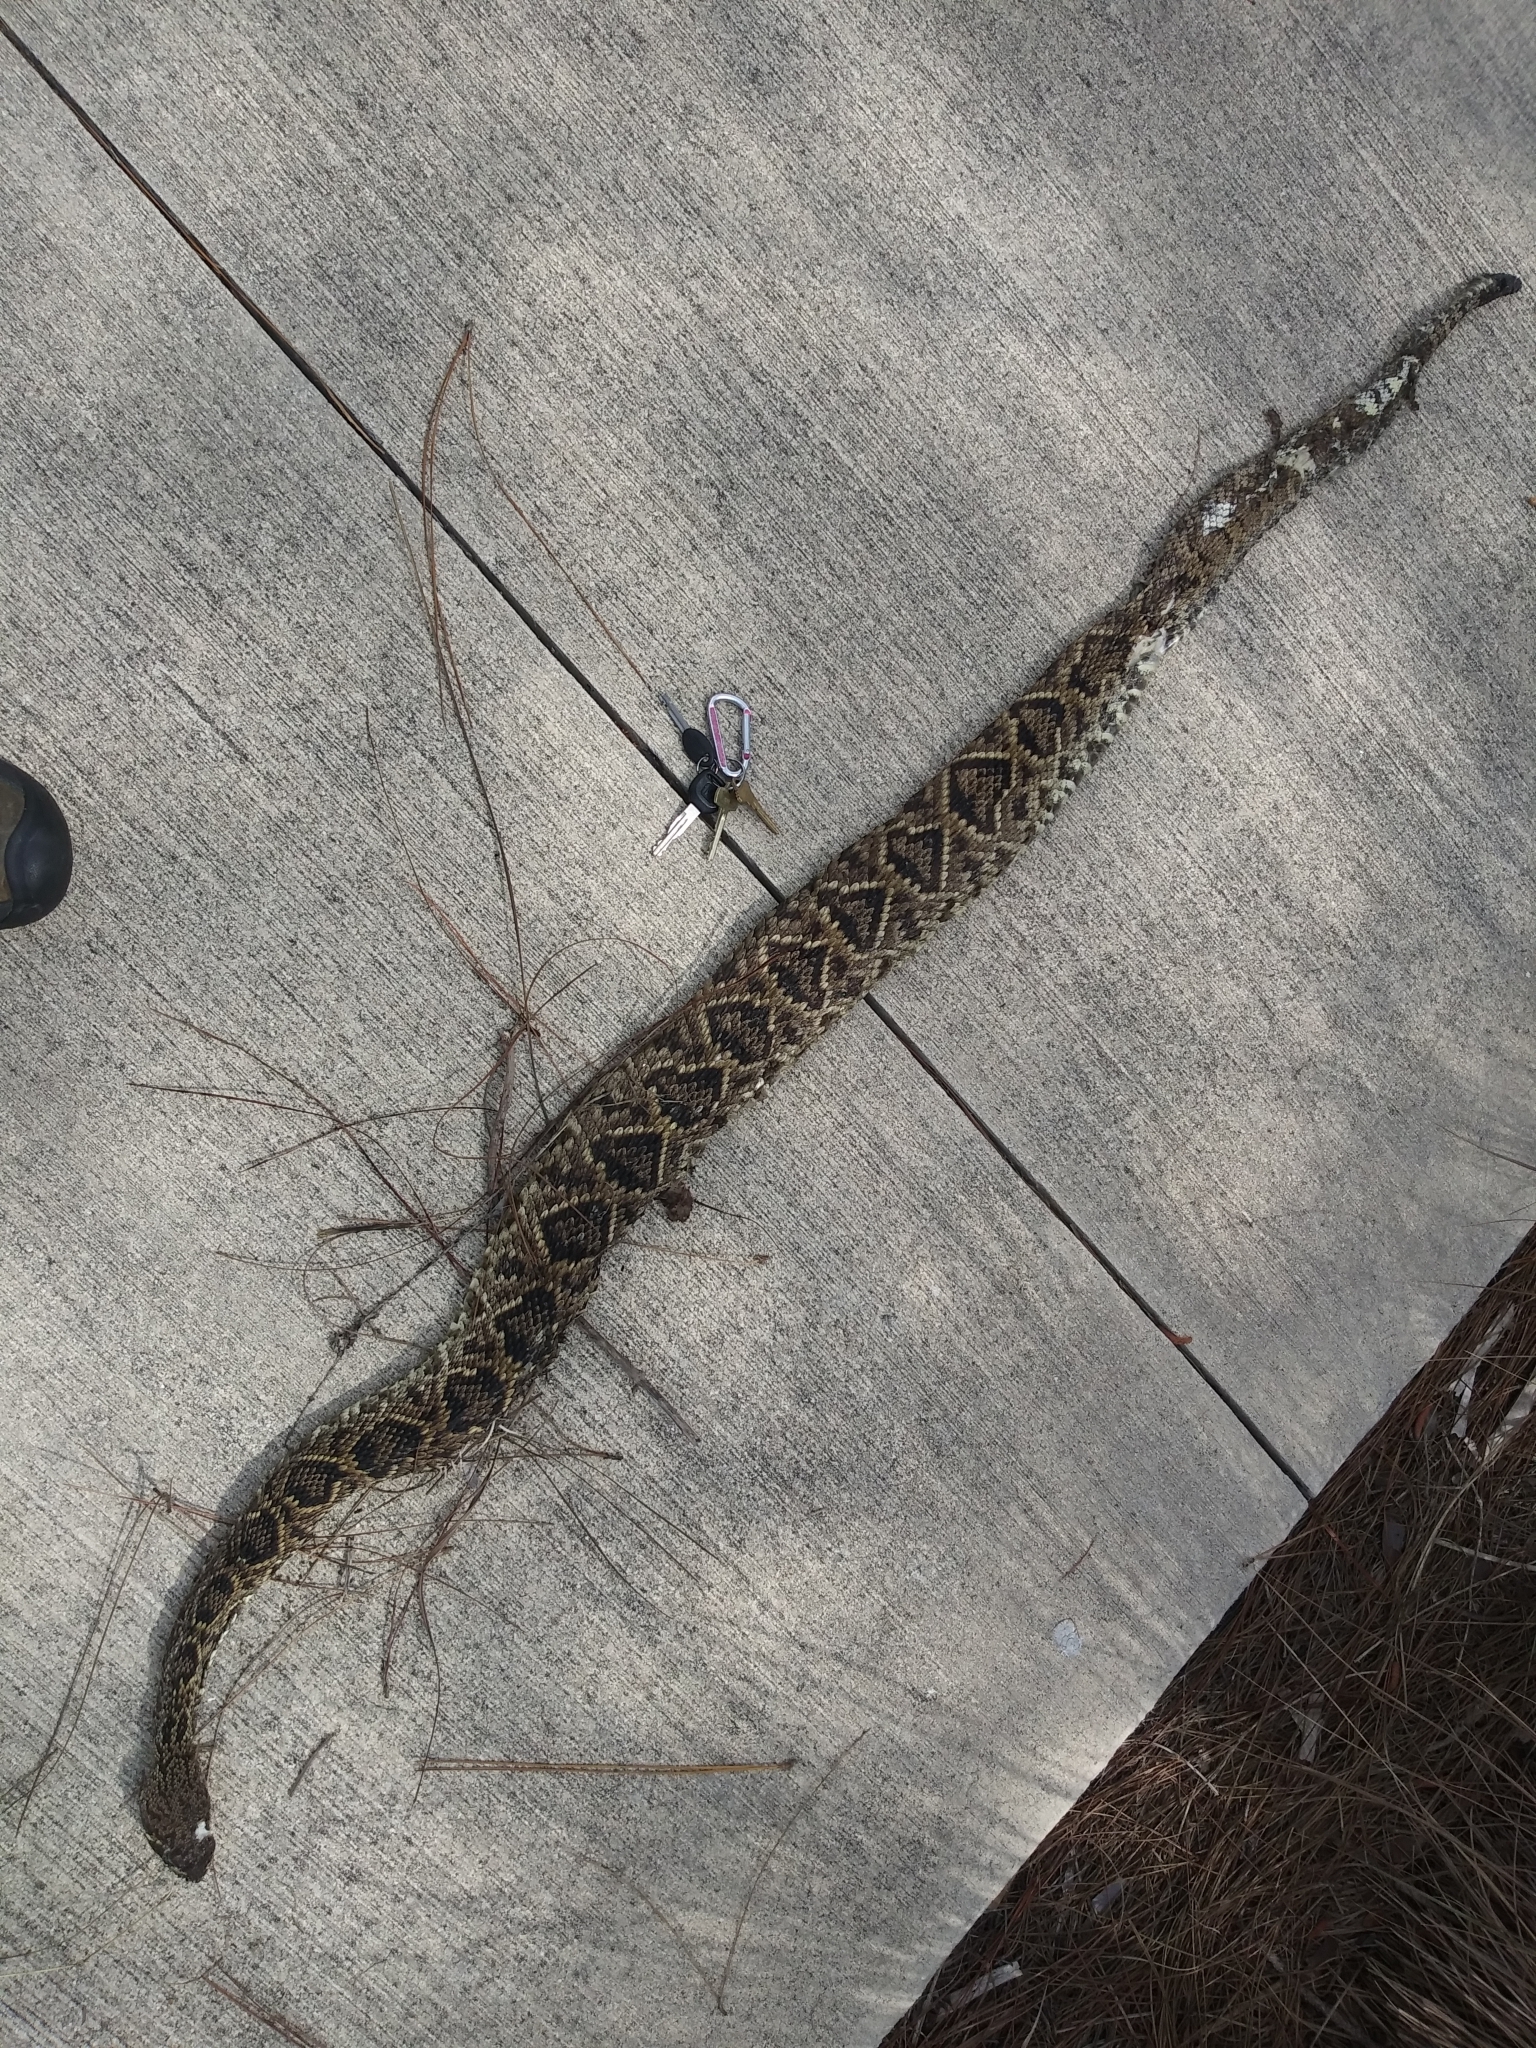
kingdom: Animalia
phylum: Chordata
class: Squamata
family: Viperidae
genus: Crotalus
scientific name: Crotalus adamanteus
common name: Eastern diamondback rattlesnake
